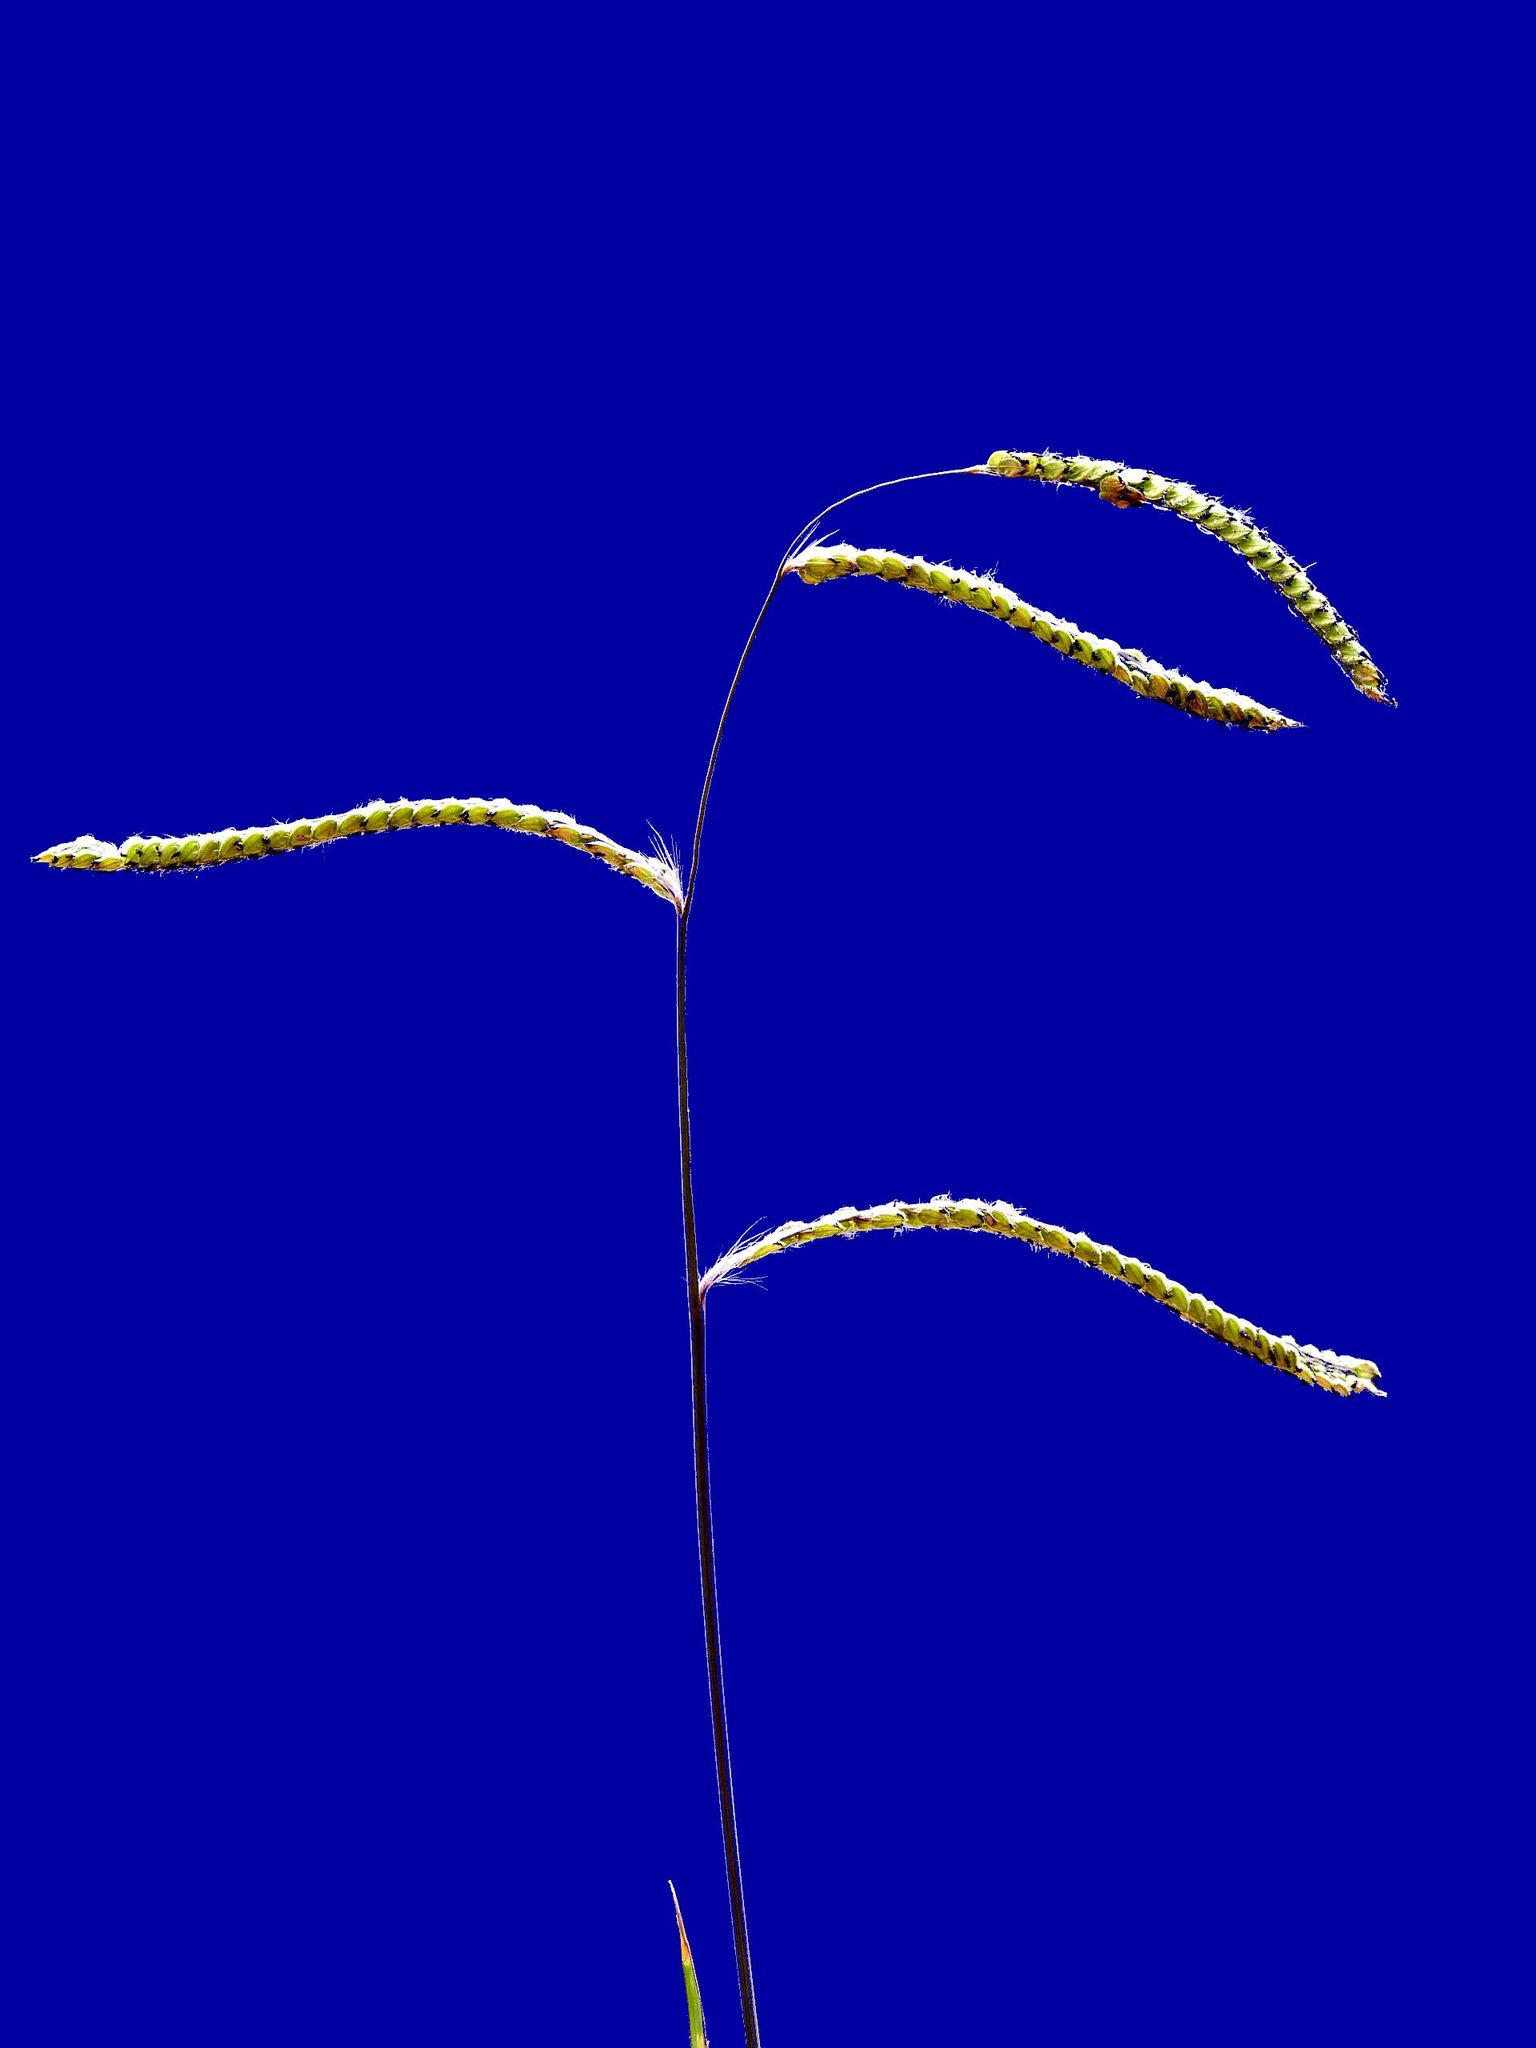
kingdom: Plantae
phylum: Tracheophyta
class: Liliopsida
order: Poales
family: Poaceae
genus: Paspalum
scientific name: Paspalum dilatatum
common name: Dallisgrass
